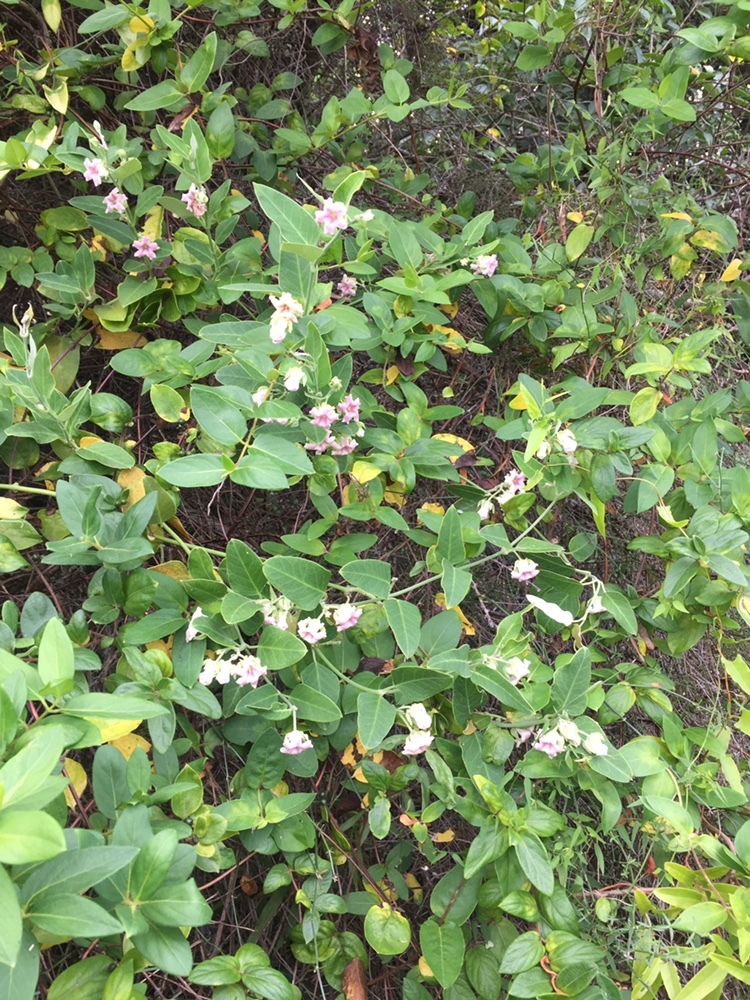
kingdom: Plantae
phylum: Tracheophyta
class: Magnoliopsida
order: Gentianales
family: Apocynaceae
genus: Araujia
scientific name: Araujia sericifera
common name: White bladderflower
